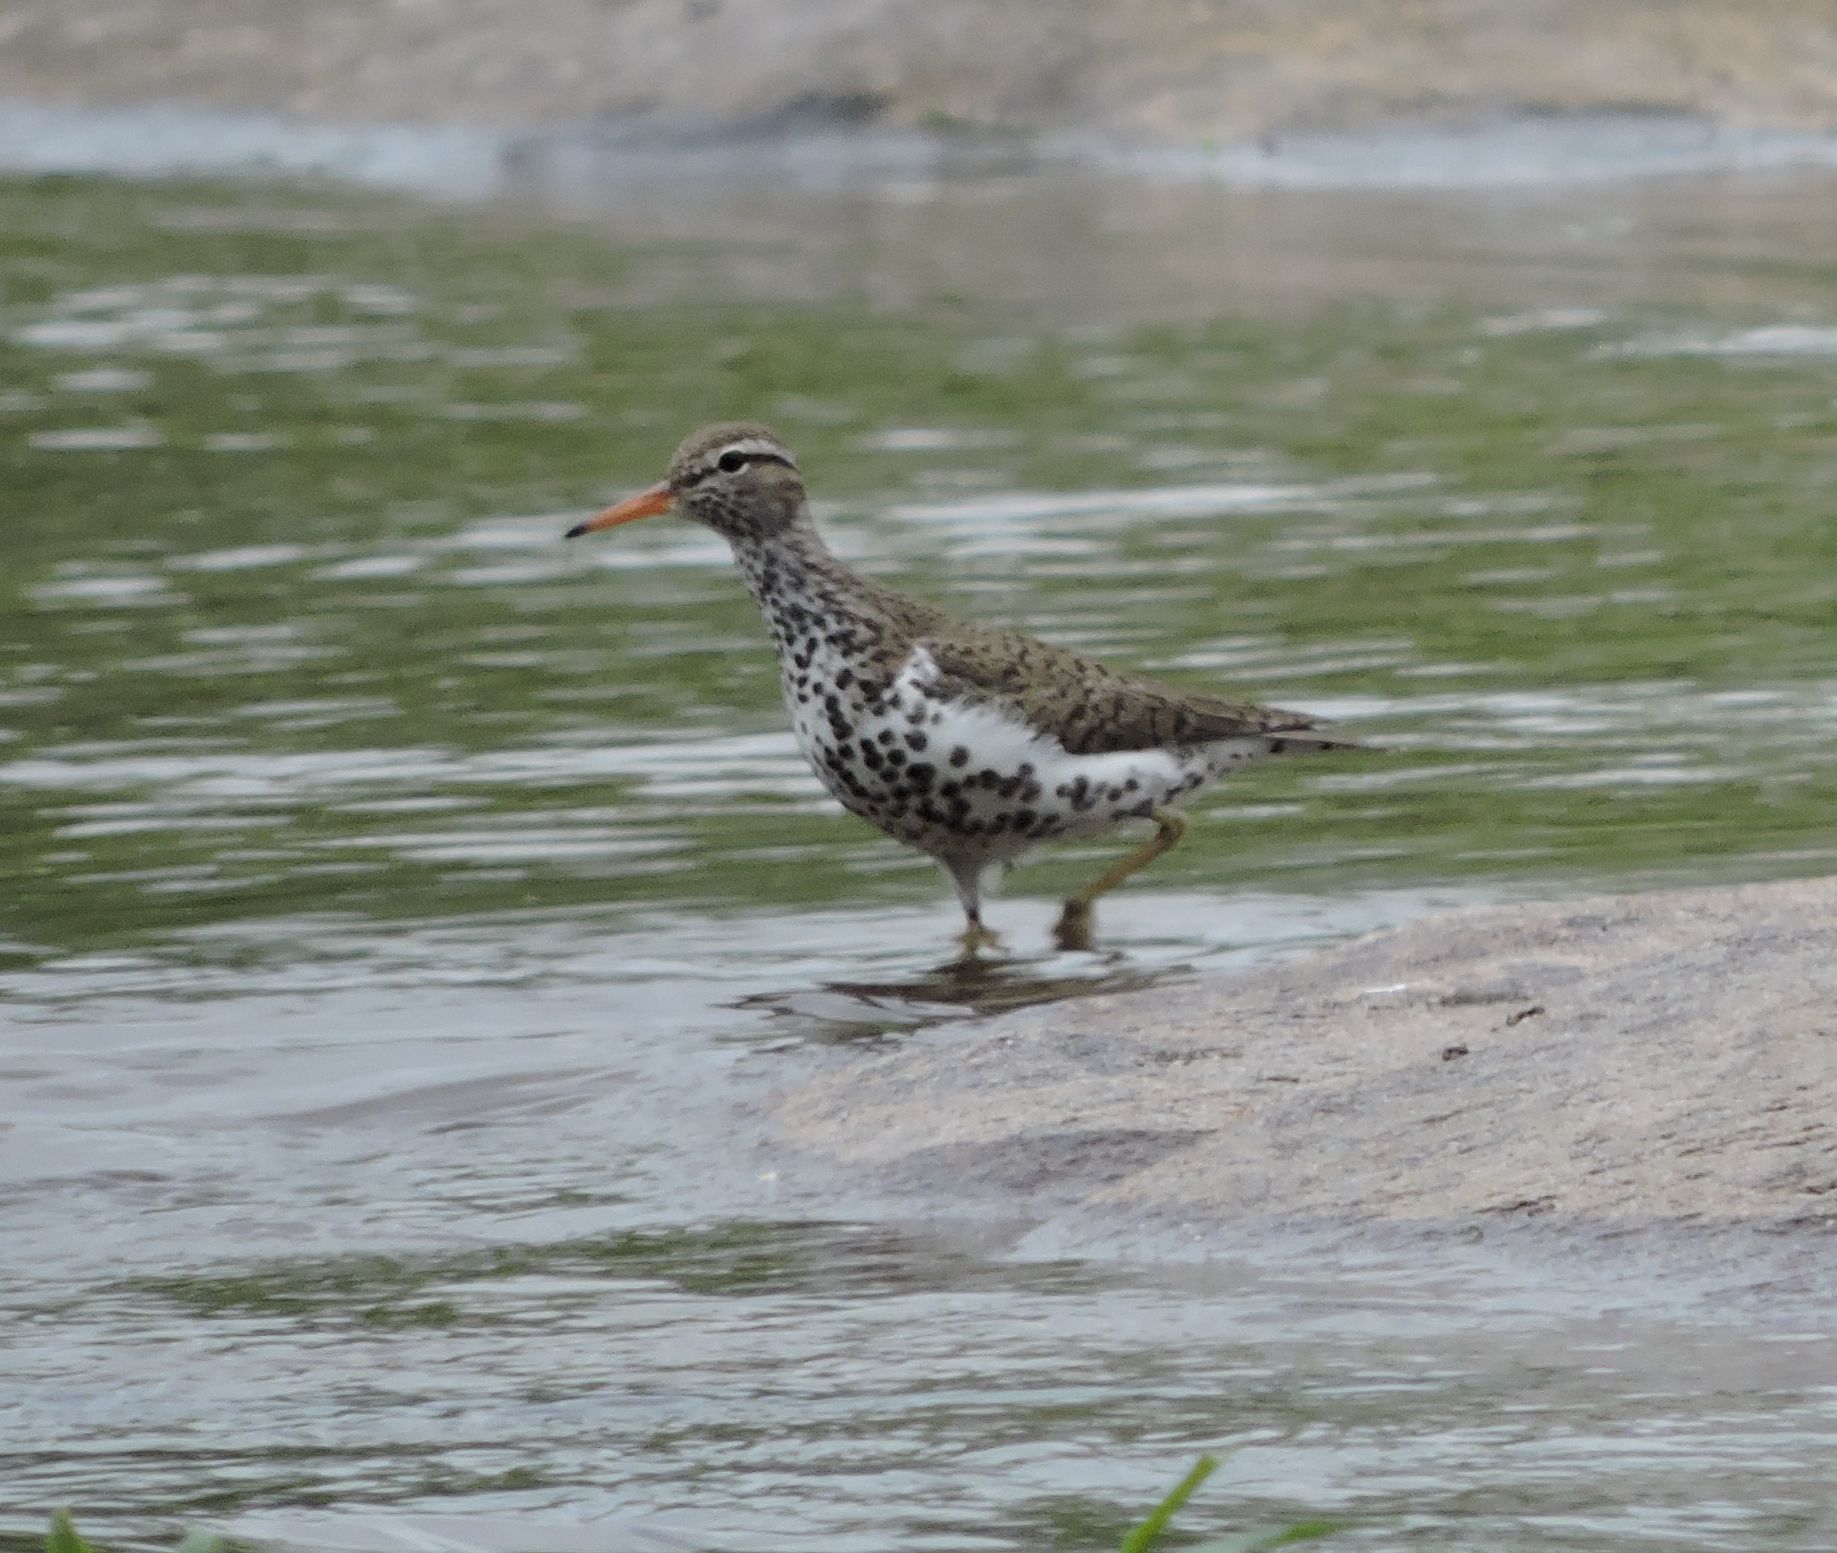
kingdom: Animalia
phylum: Chordata
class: Aves
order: Charadriiformes
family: Scolopacidae
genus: Actitis
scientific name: Actitis macularius
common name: Spotted sandpiper
